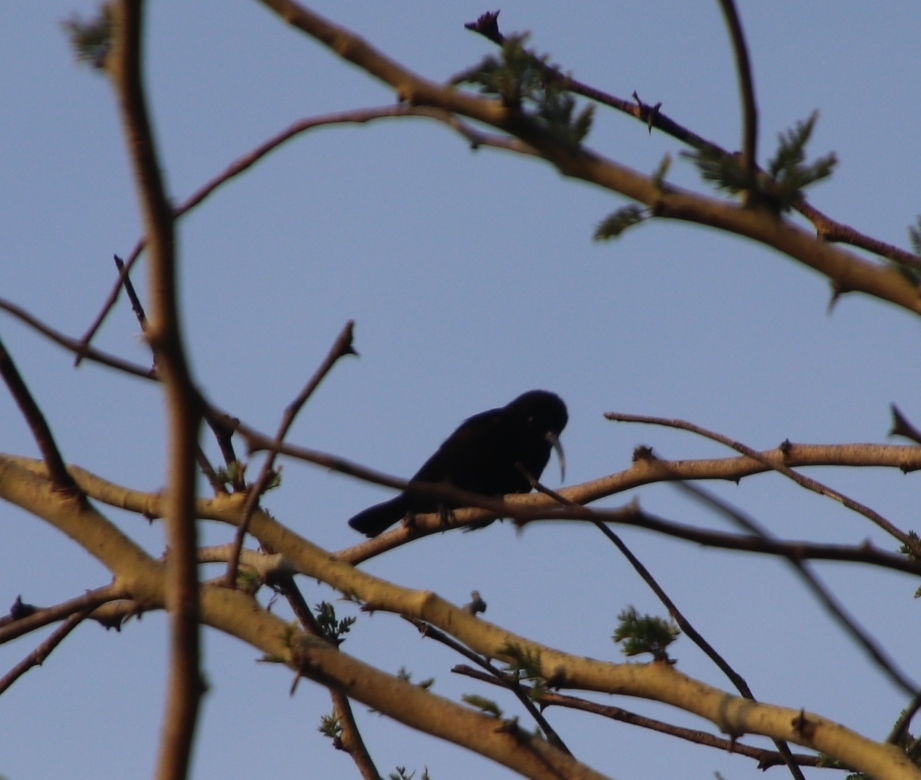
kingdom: Animalia
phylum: Chordata
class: Aves
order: Passeriformes
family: Nectariniidae
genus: Chalcomitra
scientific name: Chalcomitra amethystina
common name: Amethyst sunbird
